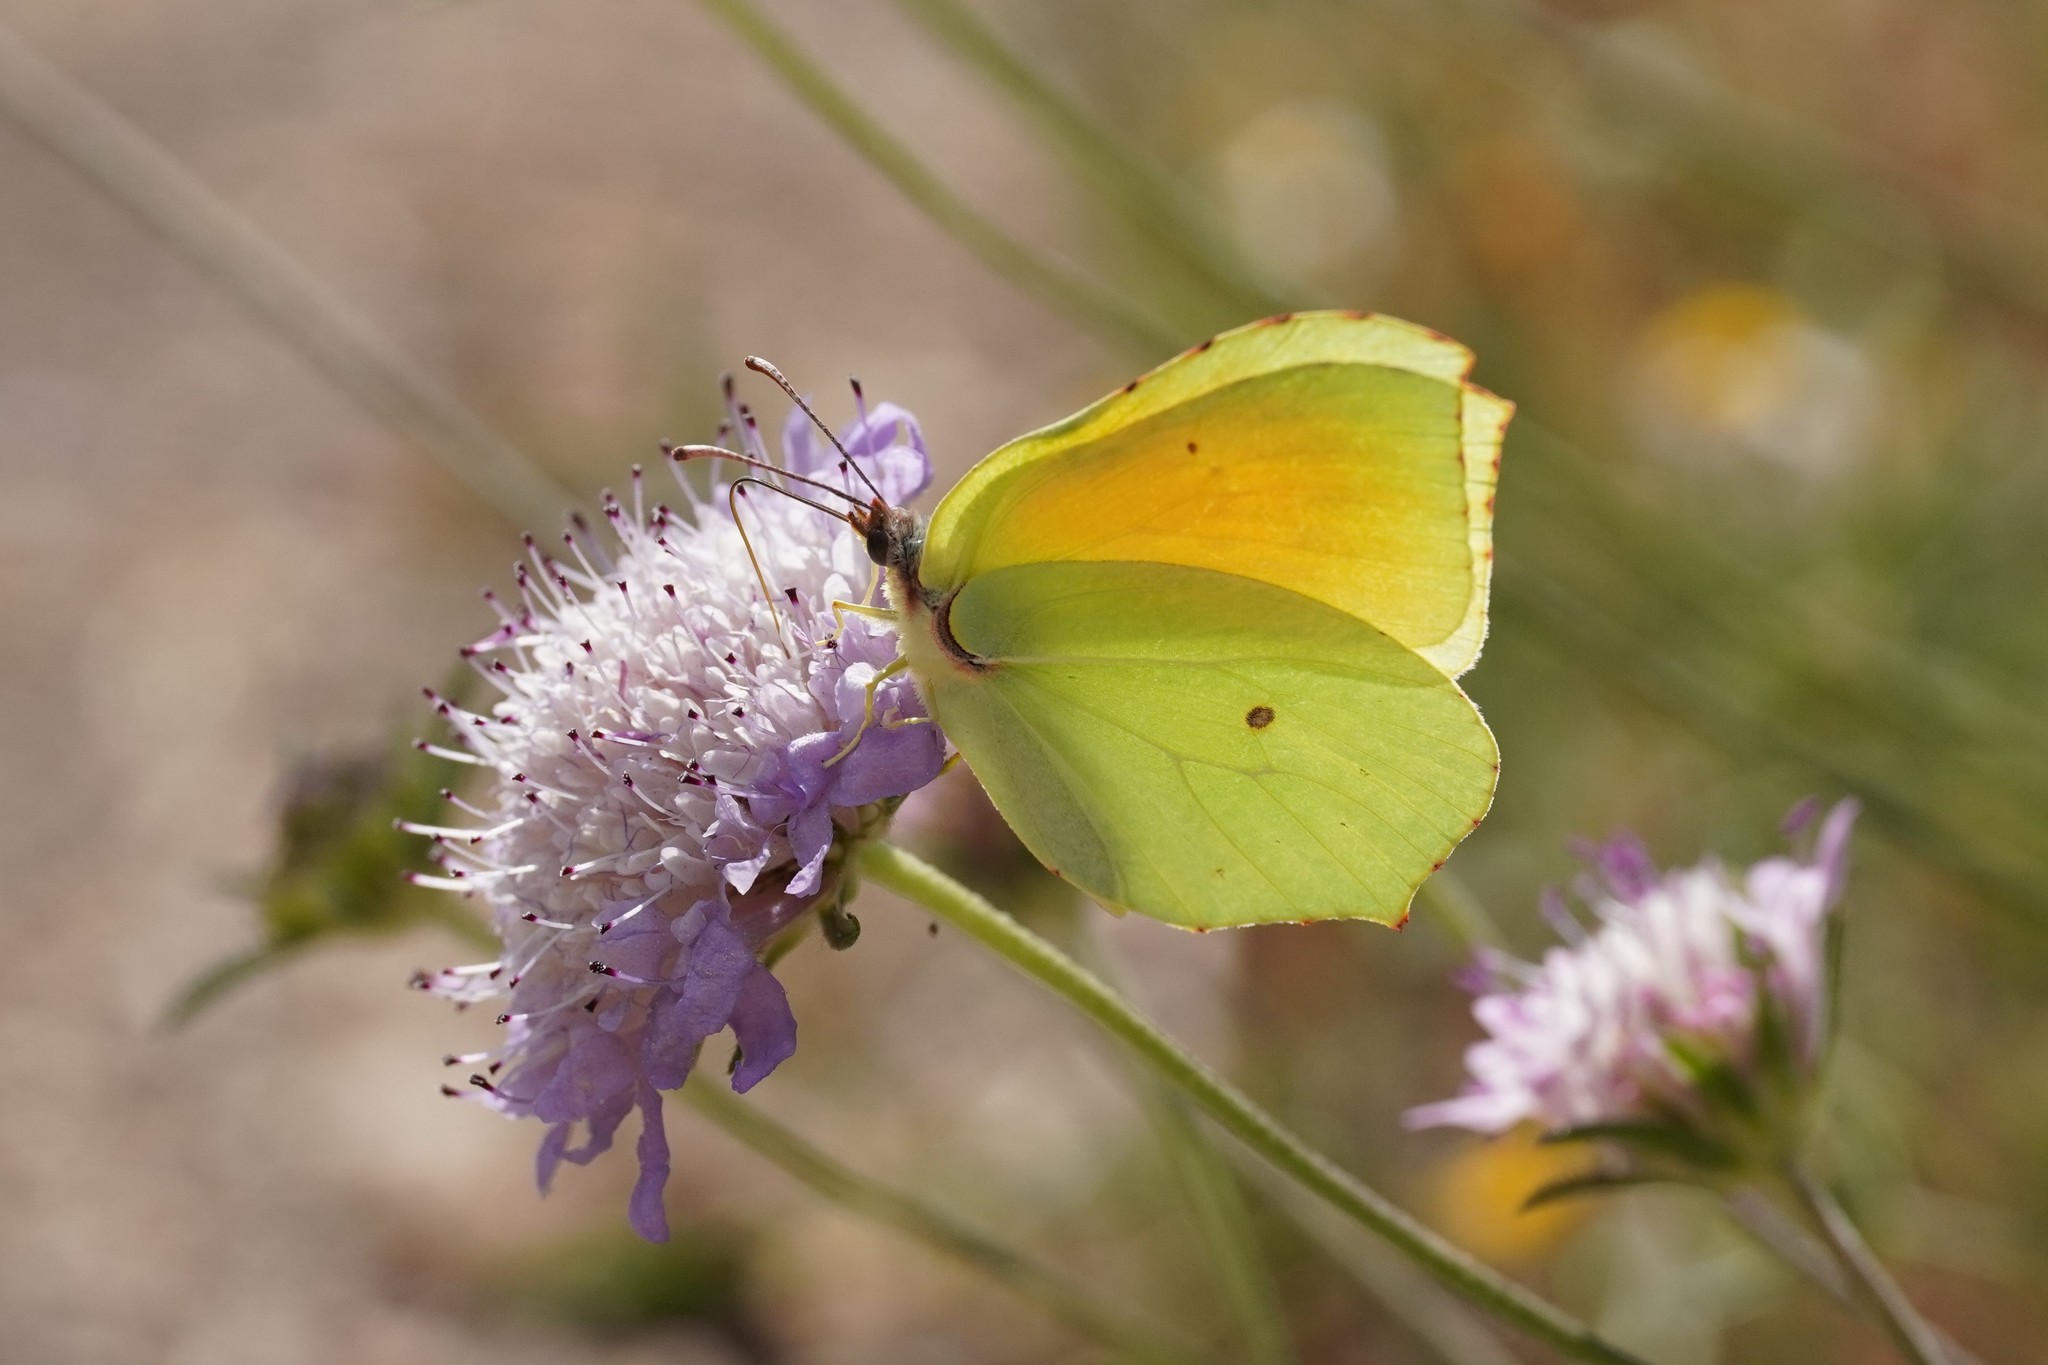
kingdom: Animalia
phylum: Arthropoda
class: Insecta
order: Lepidoptera
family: Pieridae
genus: Gonepteryx
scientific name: Gonepteryx cleopatra
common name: Cleopatra
